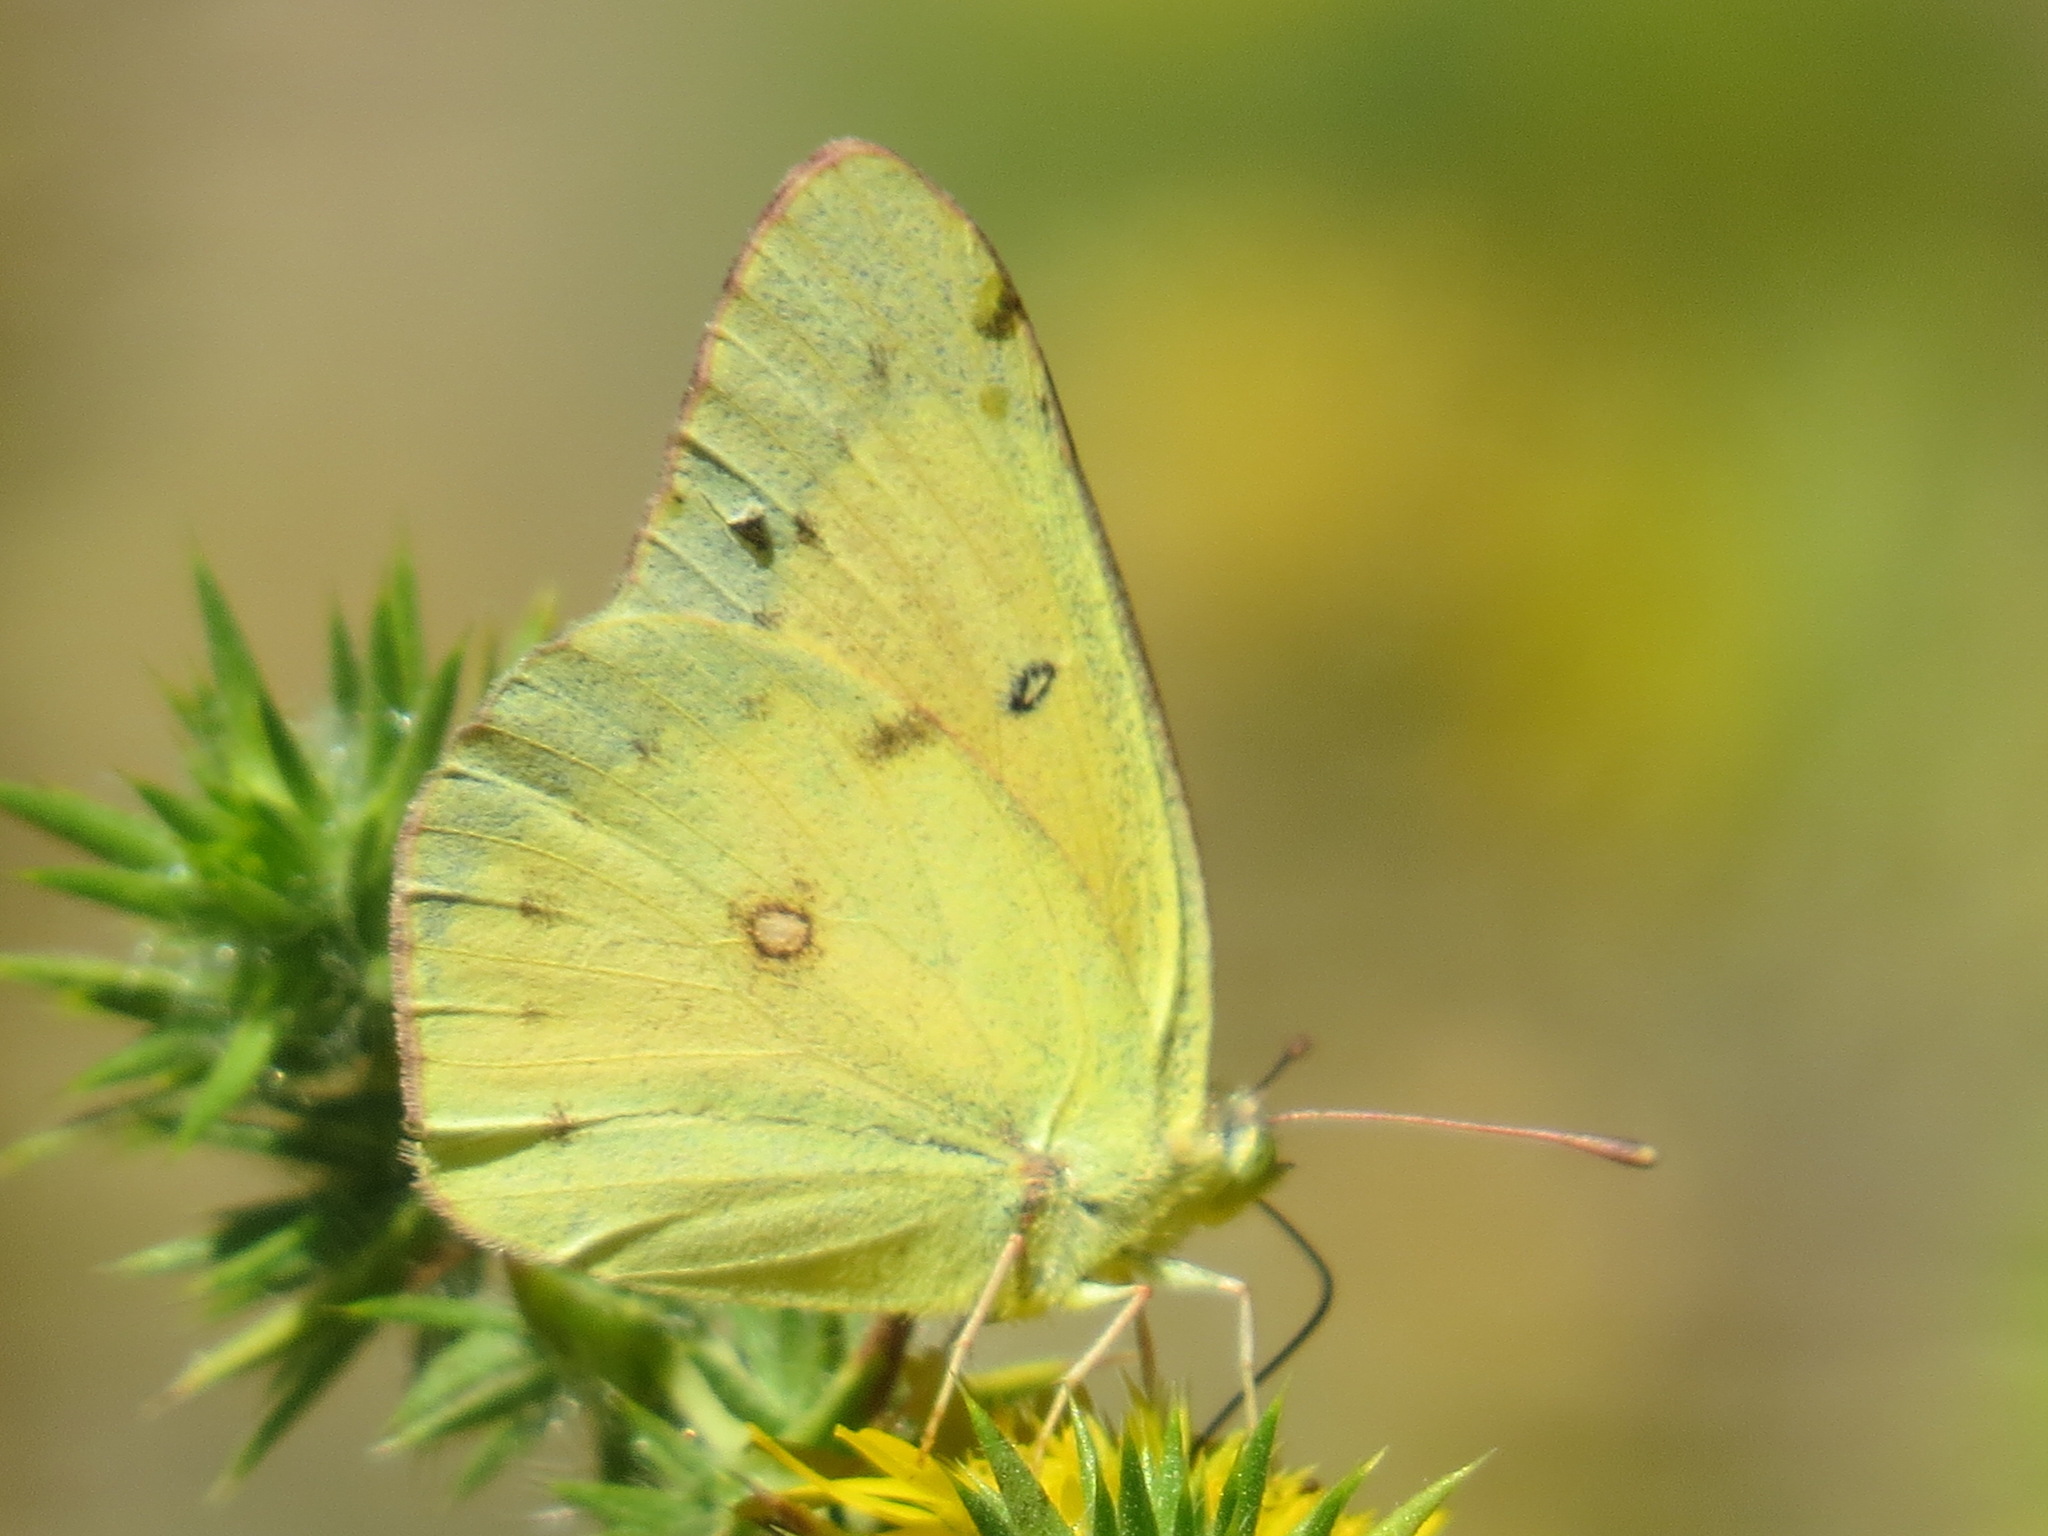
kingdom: Animalia
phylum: Arthropoda
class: Insecta
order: Lepidoptera
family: Pieridae
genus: Colias
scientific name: Colias eurytheme
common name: Alfalfa butterfly
